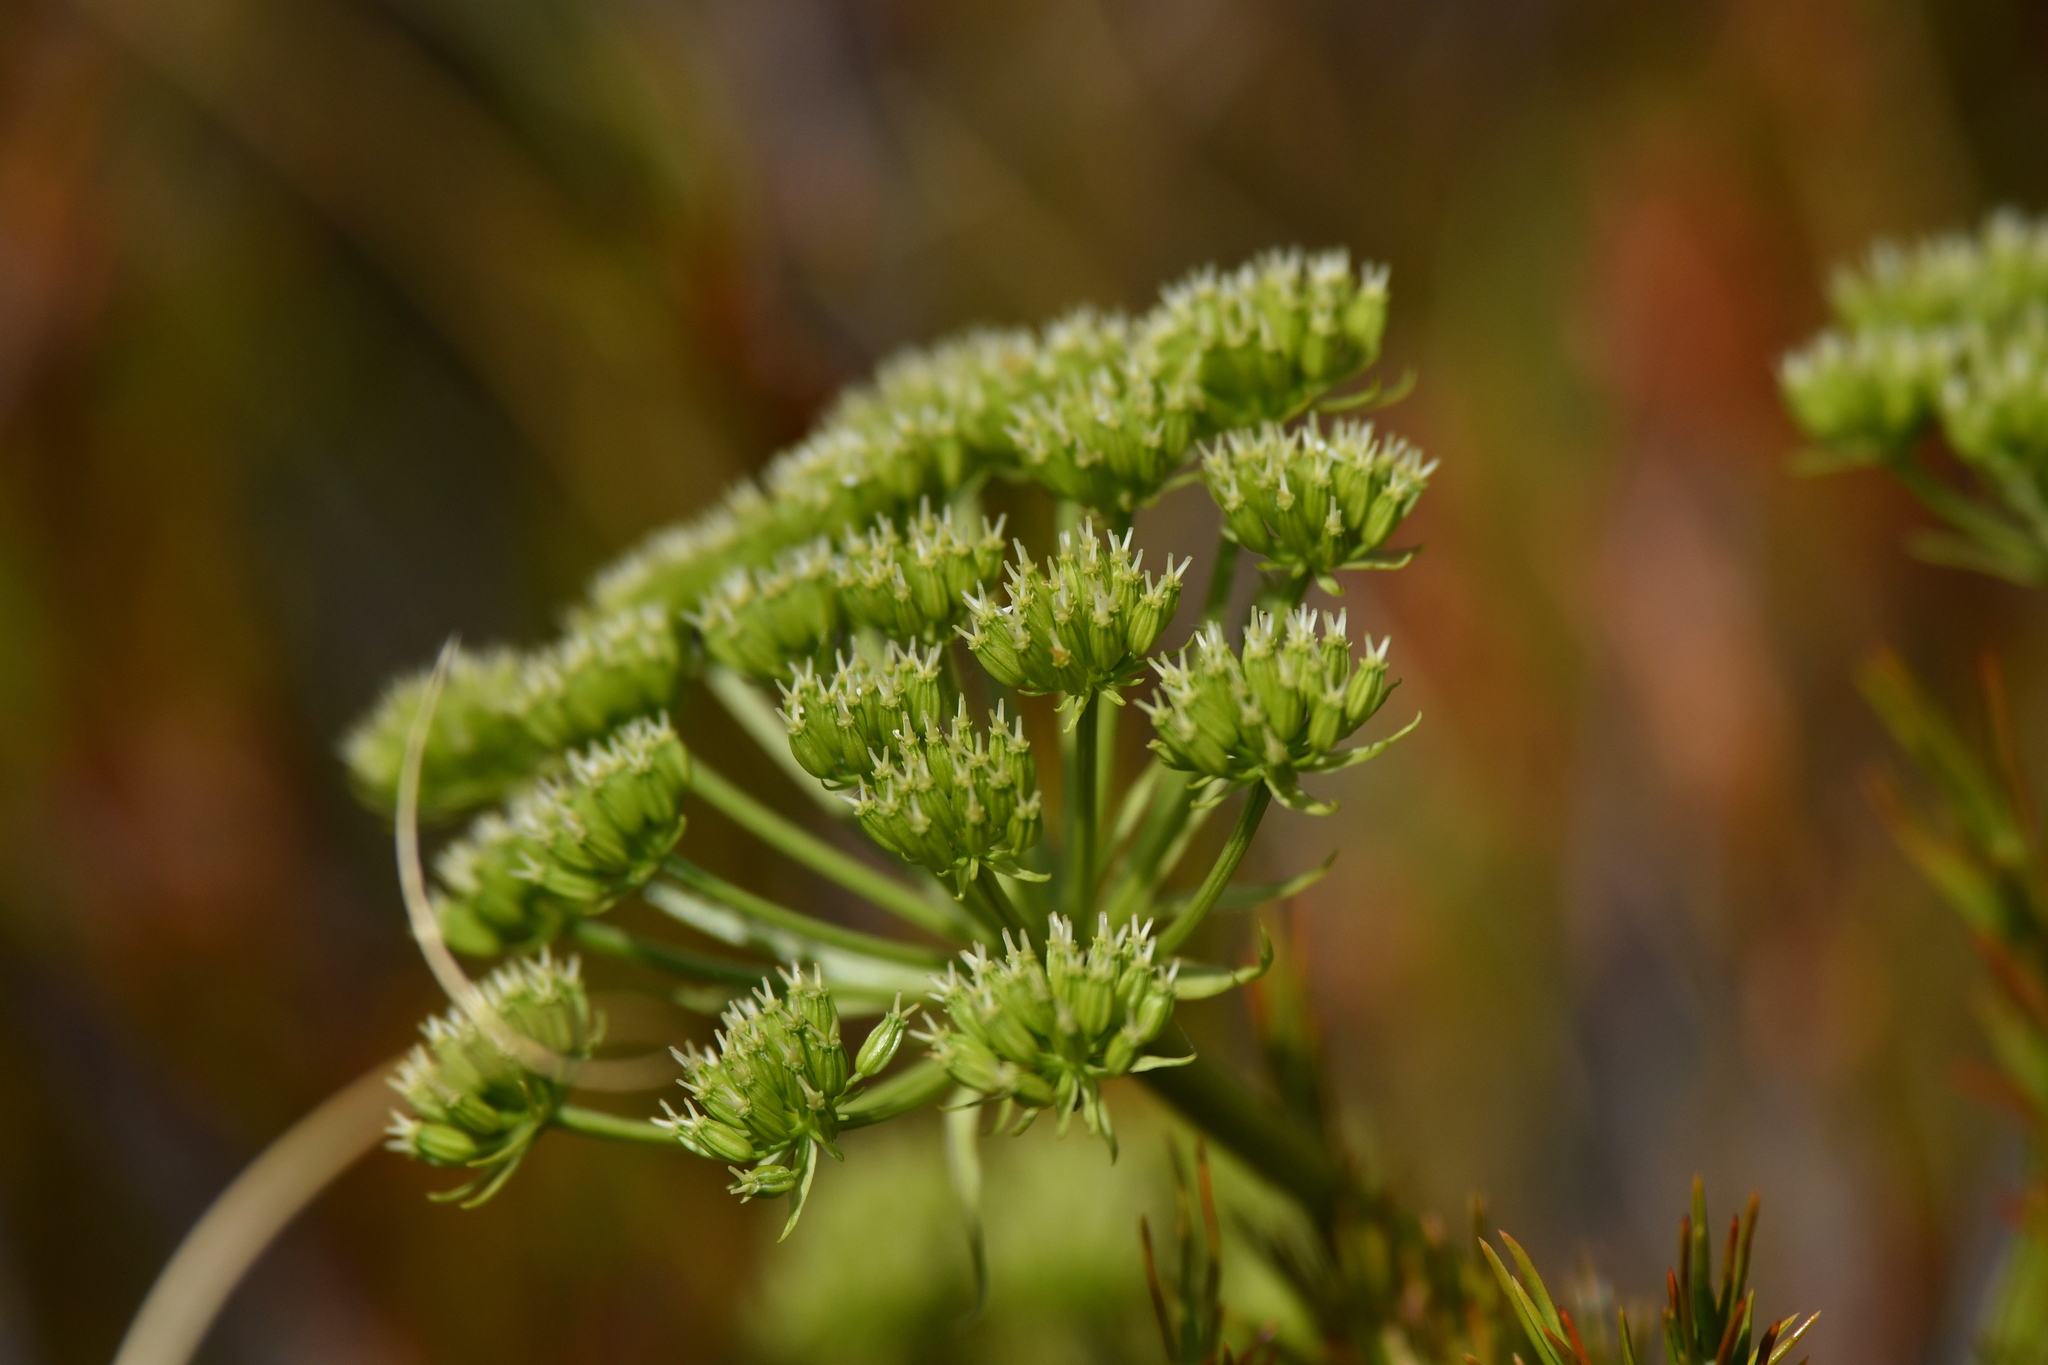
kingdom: Plantae
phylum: Tracheophyta
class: Magnoliopsida
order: Apiales
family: Apiaceae
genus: Anisotome
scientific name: Anisotome haastii
